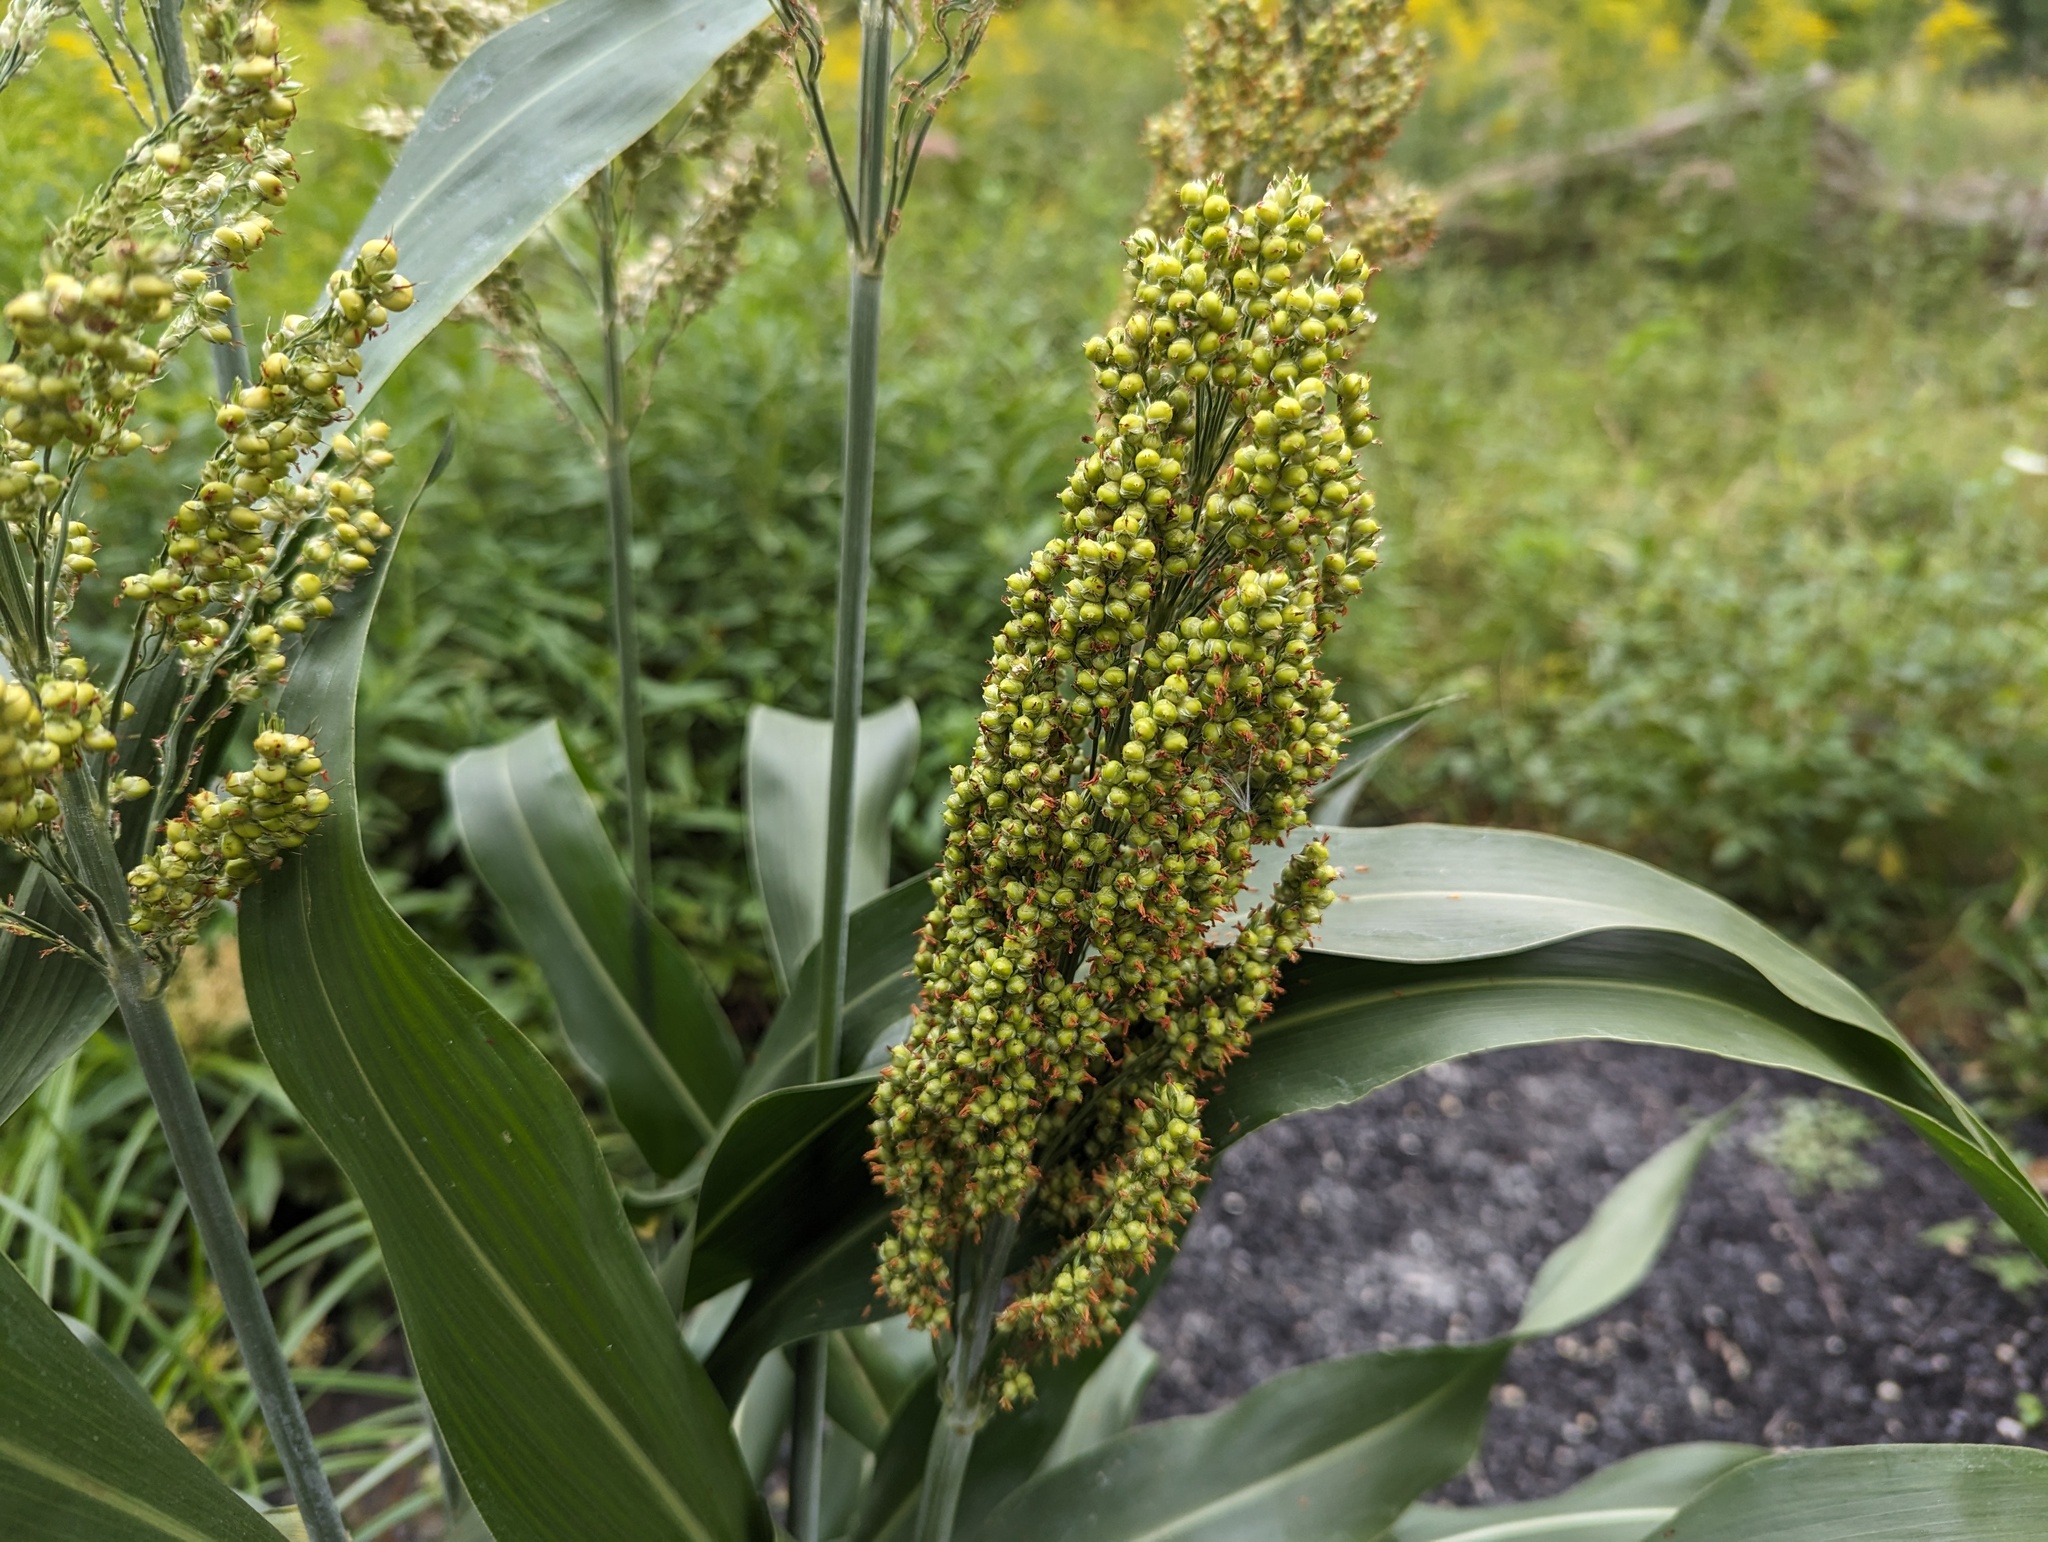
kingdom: Plantae
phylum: Tracheophyta
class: Liliopsida
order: Poales
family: Poaceae
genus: Sorghum
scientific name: Sorghum bicolor
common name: Sorghum
